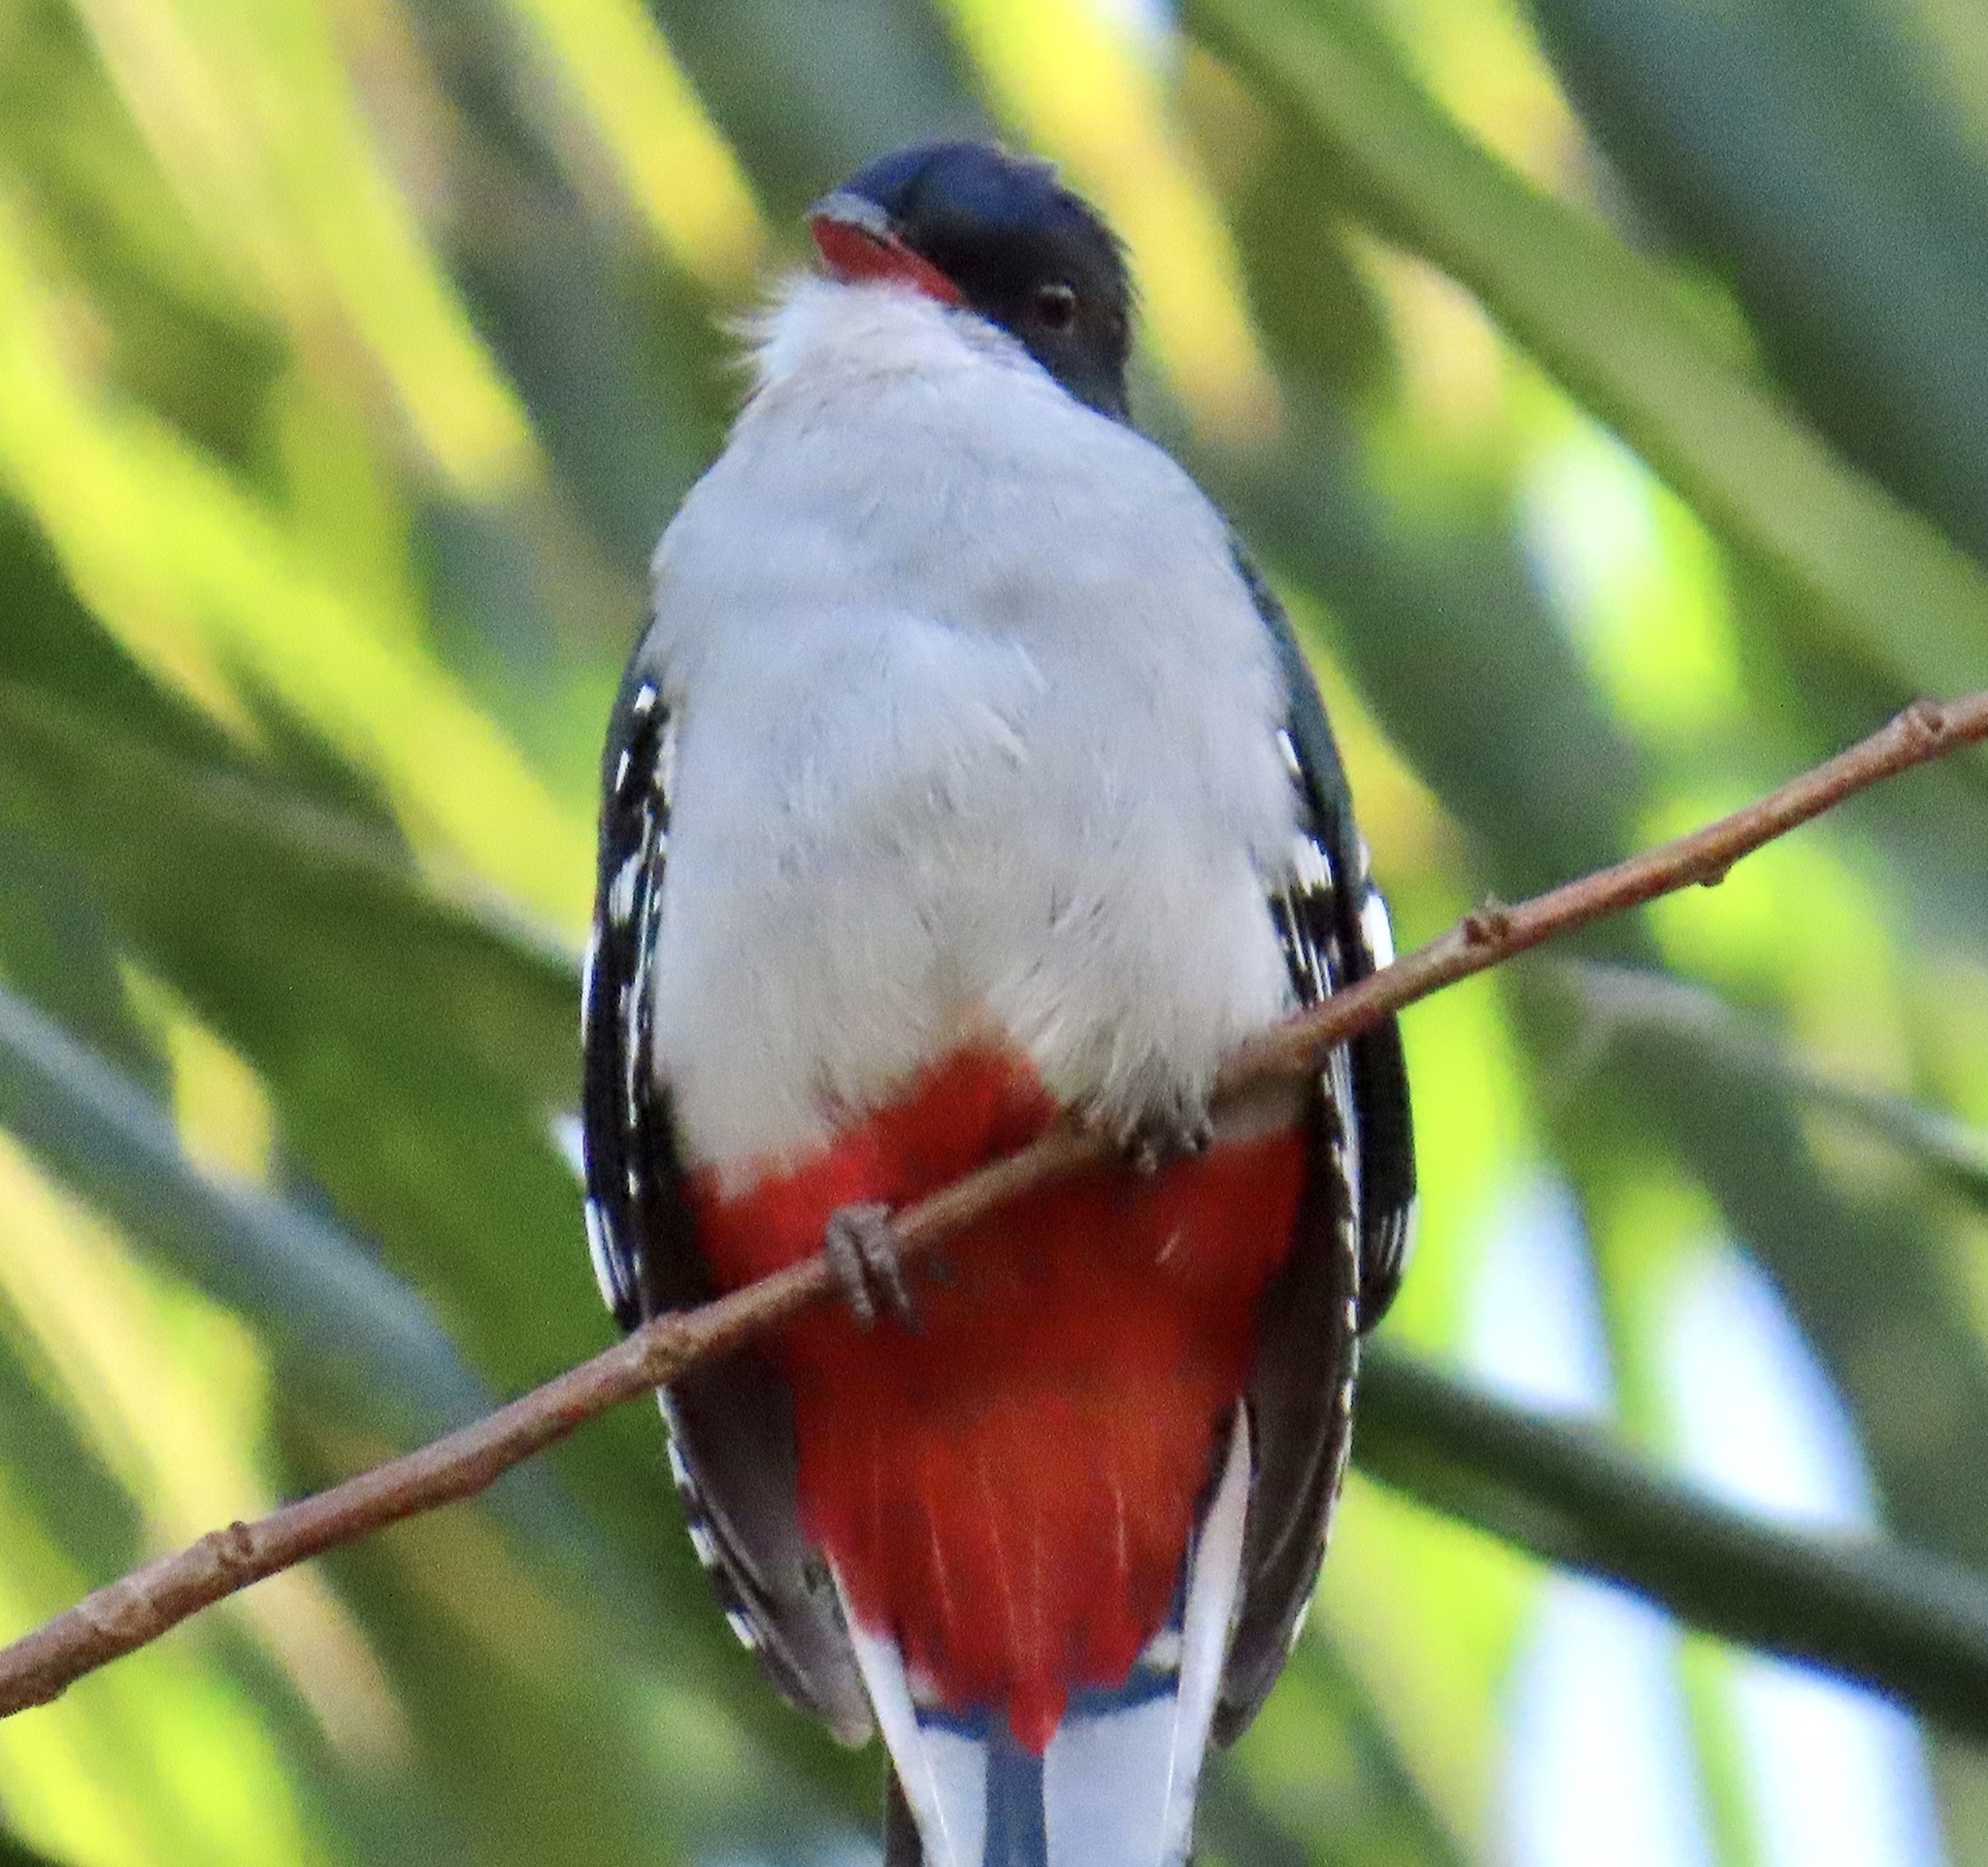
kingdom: Animalia
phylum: Chordata
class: Aves
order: Trogoniformes
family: Trogonidae
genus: Priotelus
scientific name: Priotelus temnurus
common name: Cuban trogon
